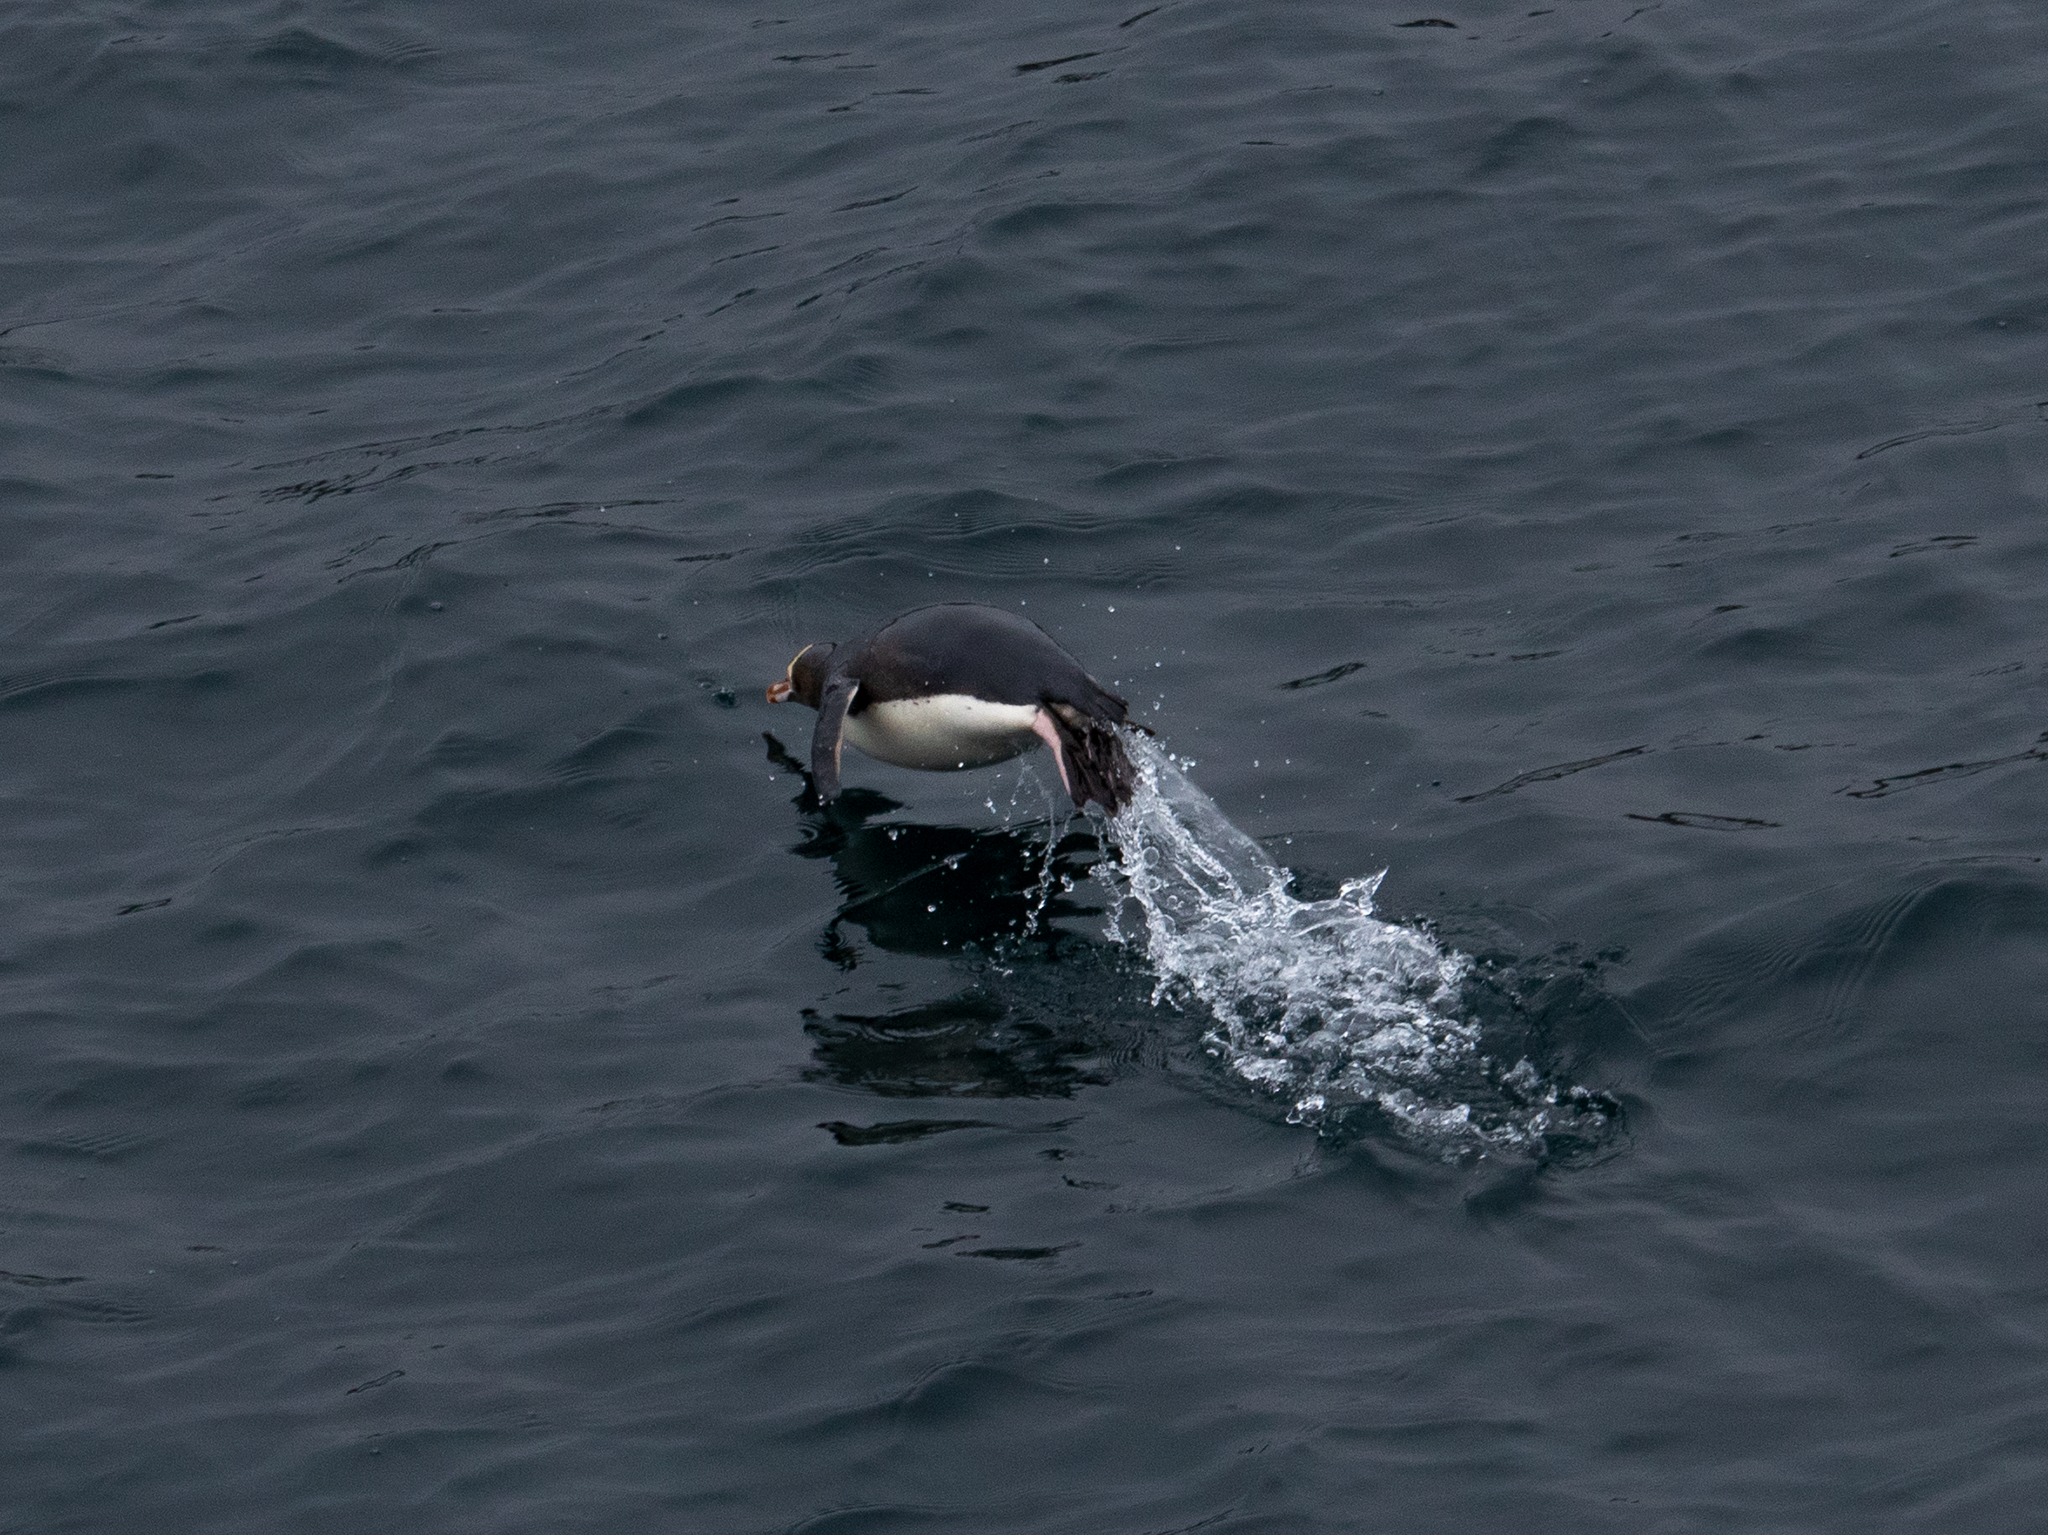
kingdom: Animalia
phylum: Chordata
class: Aves
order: Sphenisciformes
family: Spheniscidae
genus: Megadyptes
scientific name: Megadyptes antipodes
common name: Yellow-eyed penguin
